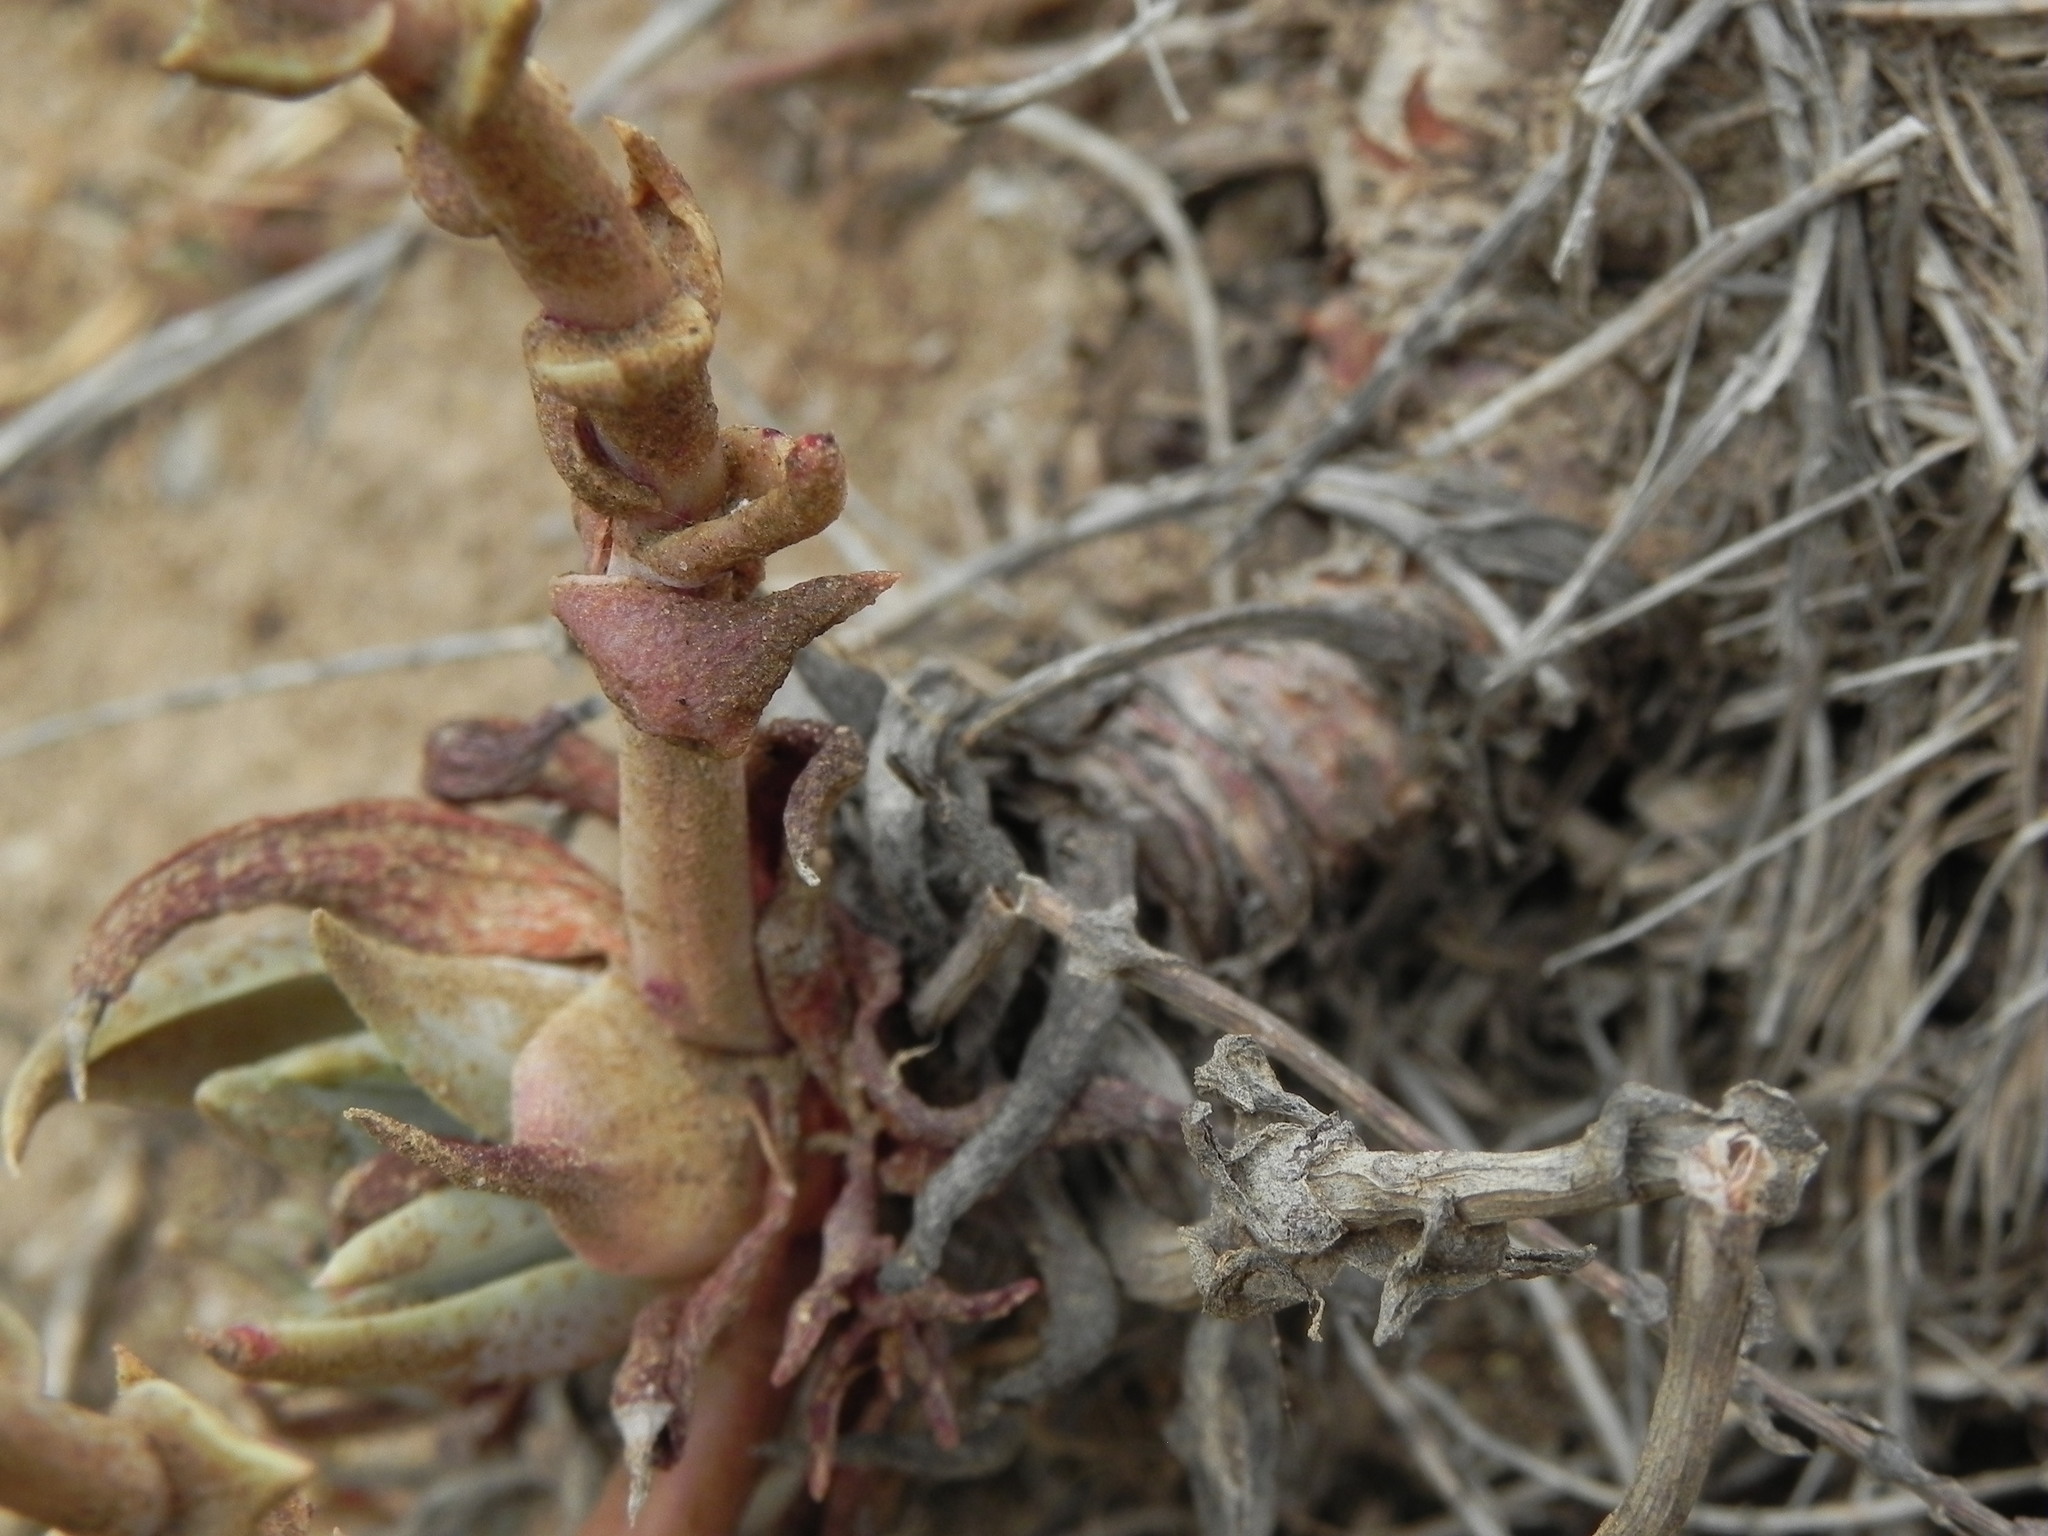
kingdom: Plantae
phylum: Tracheophyta
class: Magnoliopsida
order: Saxifragales
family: Crassulaceae
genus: Dudleya
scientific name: Dudleya caespitosa
